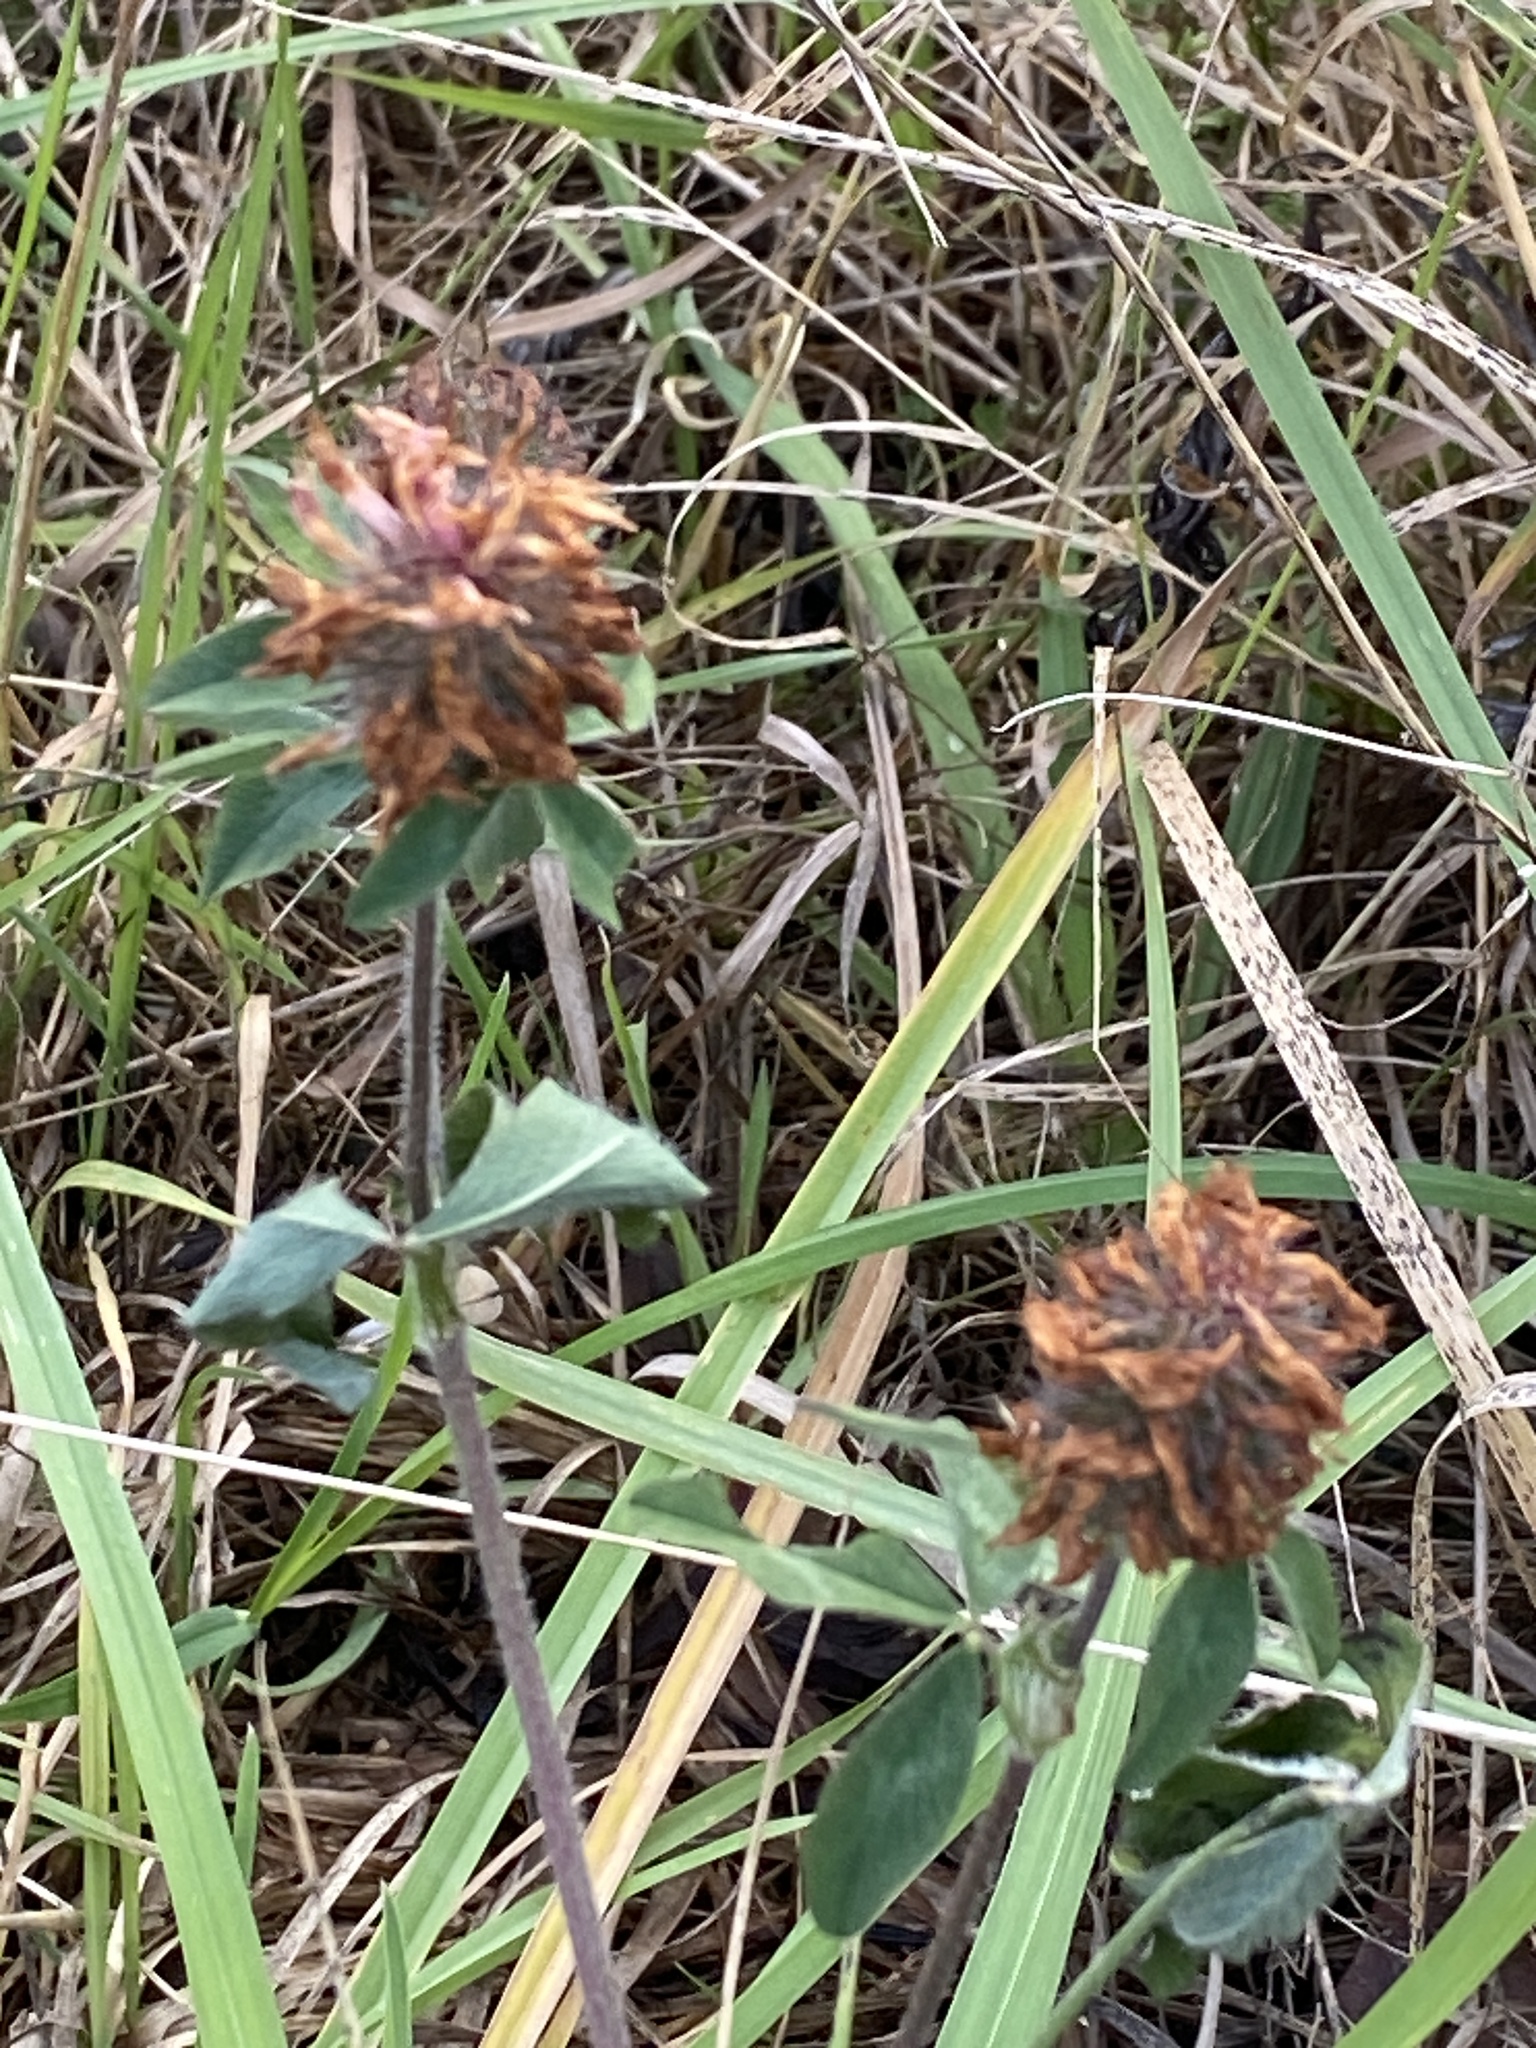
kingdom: Plantae
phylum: Tracheophyta
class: Magnoliopsida
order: Fabales
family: Fabaceae
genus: Trifolium
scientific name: Trifolium pratense
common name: Red clover
